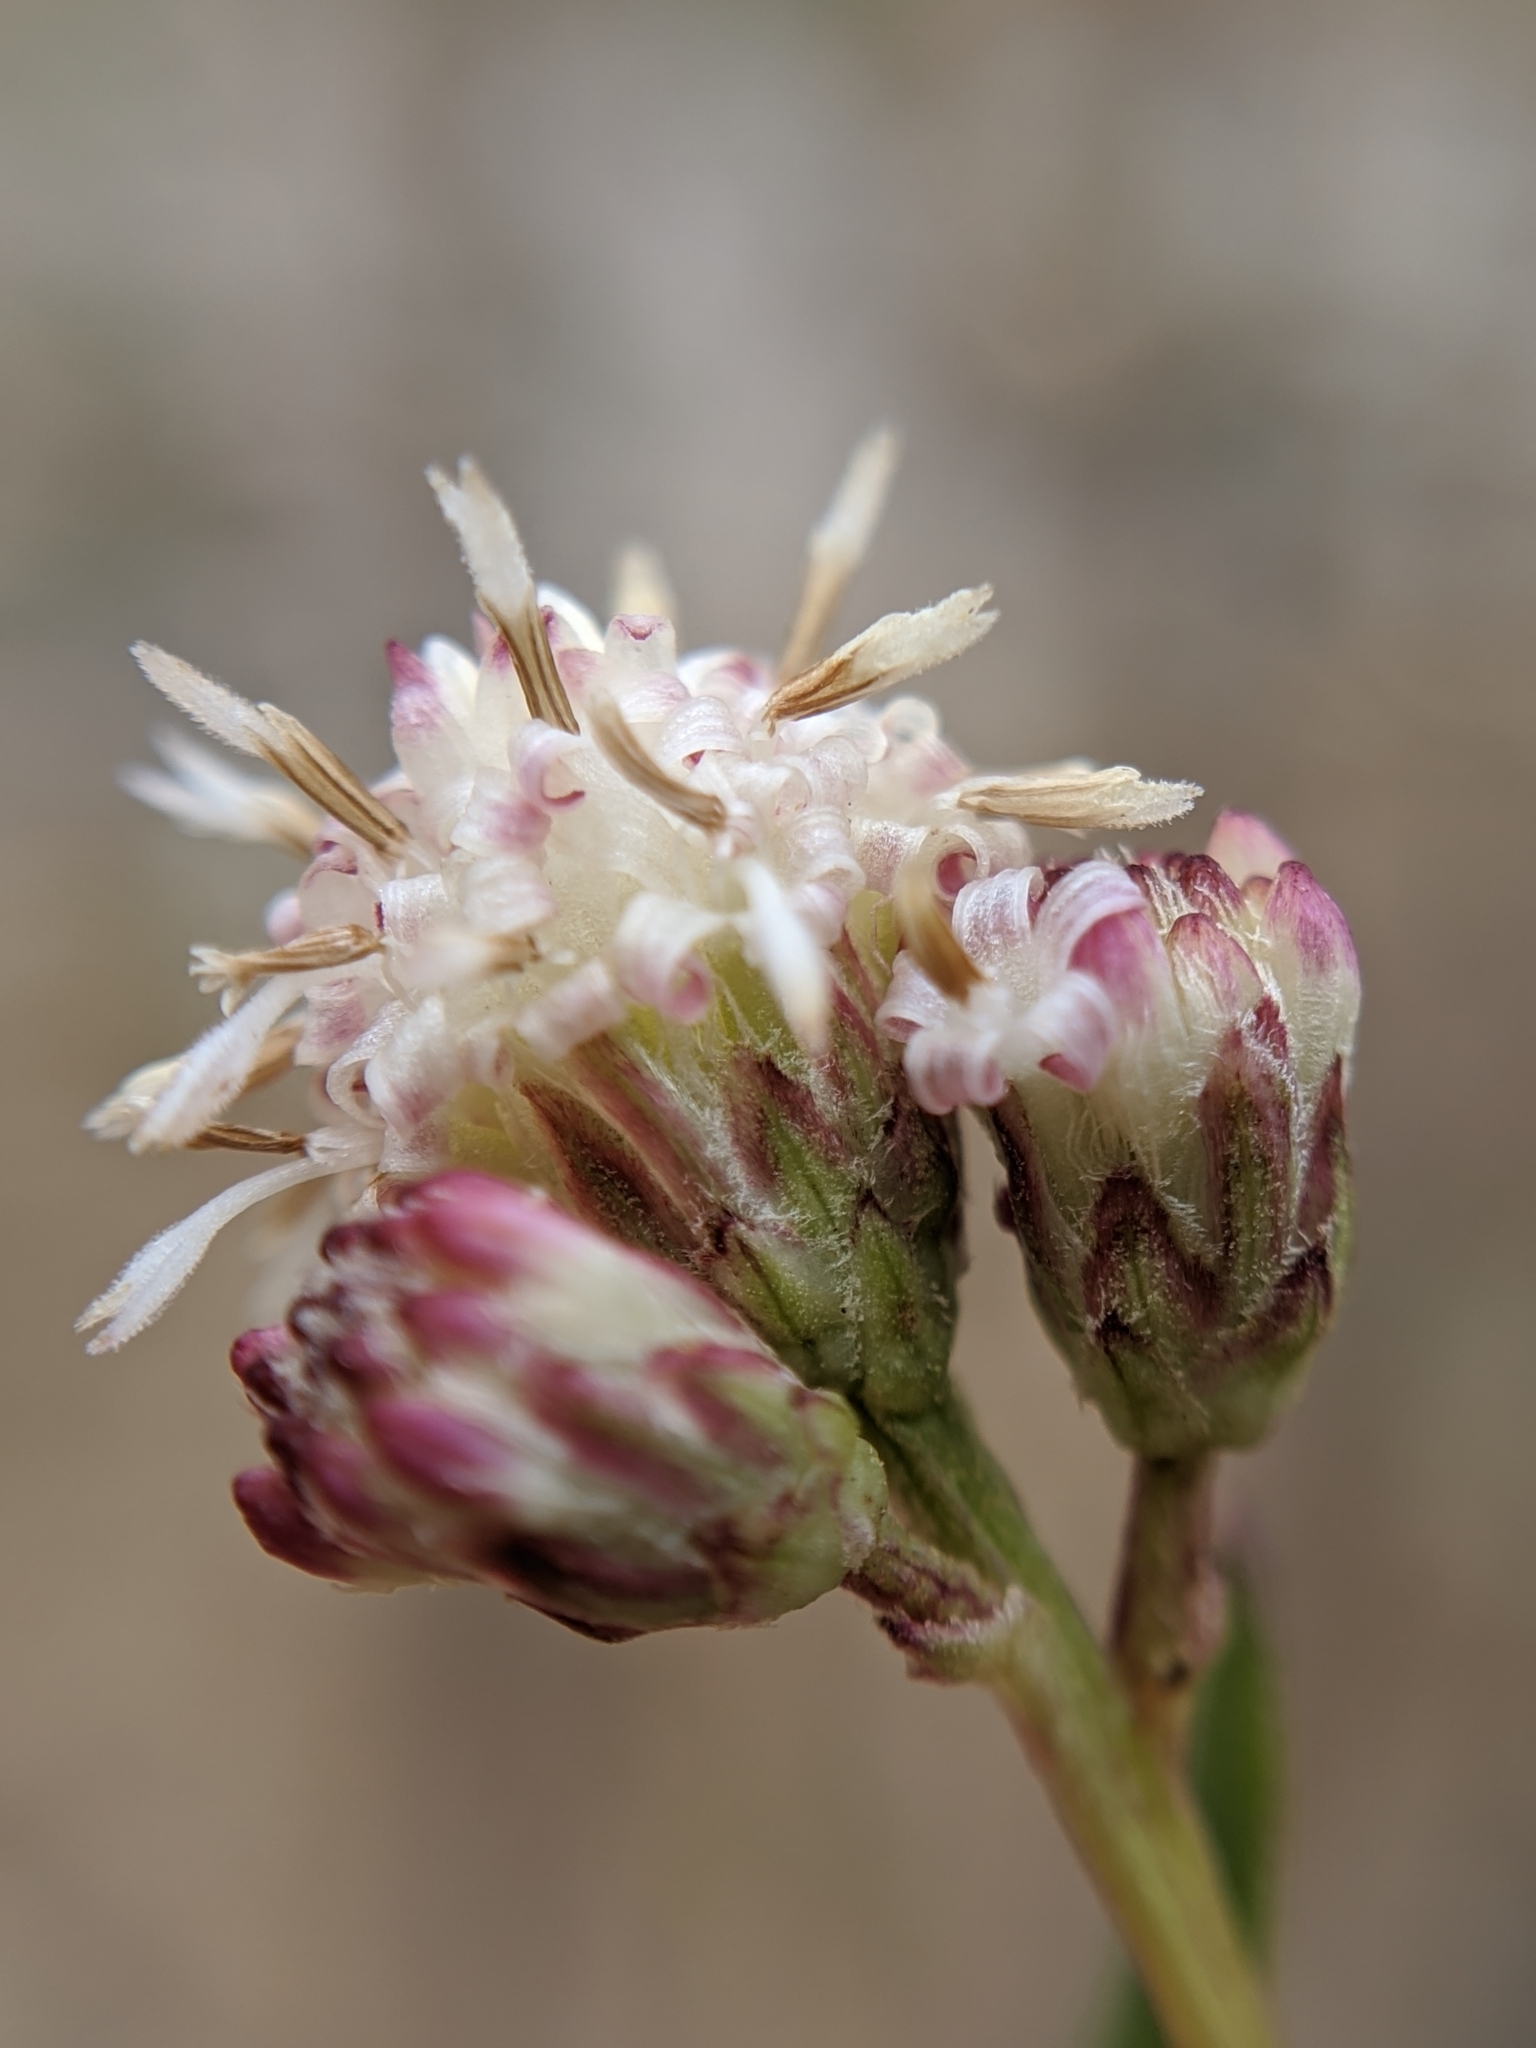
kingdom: Plantae
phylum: Tracheophyta
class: Magnoliopsida
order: Asterales
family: Asteraceae
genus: Baccharis
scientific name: Baccharis salicifolia
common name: Sticky baccharis
